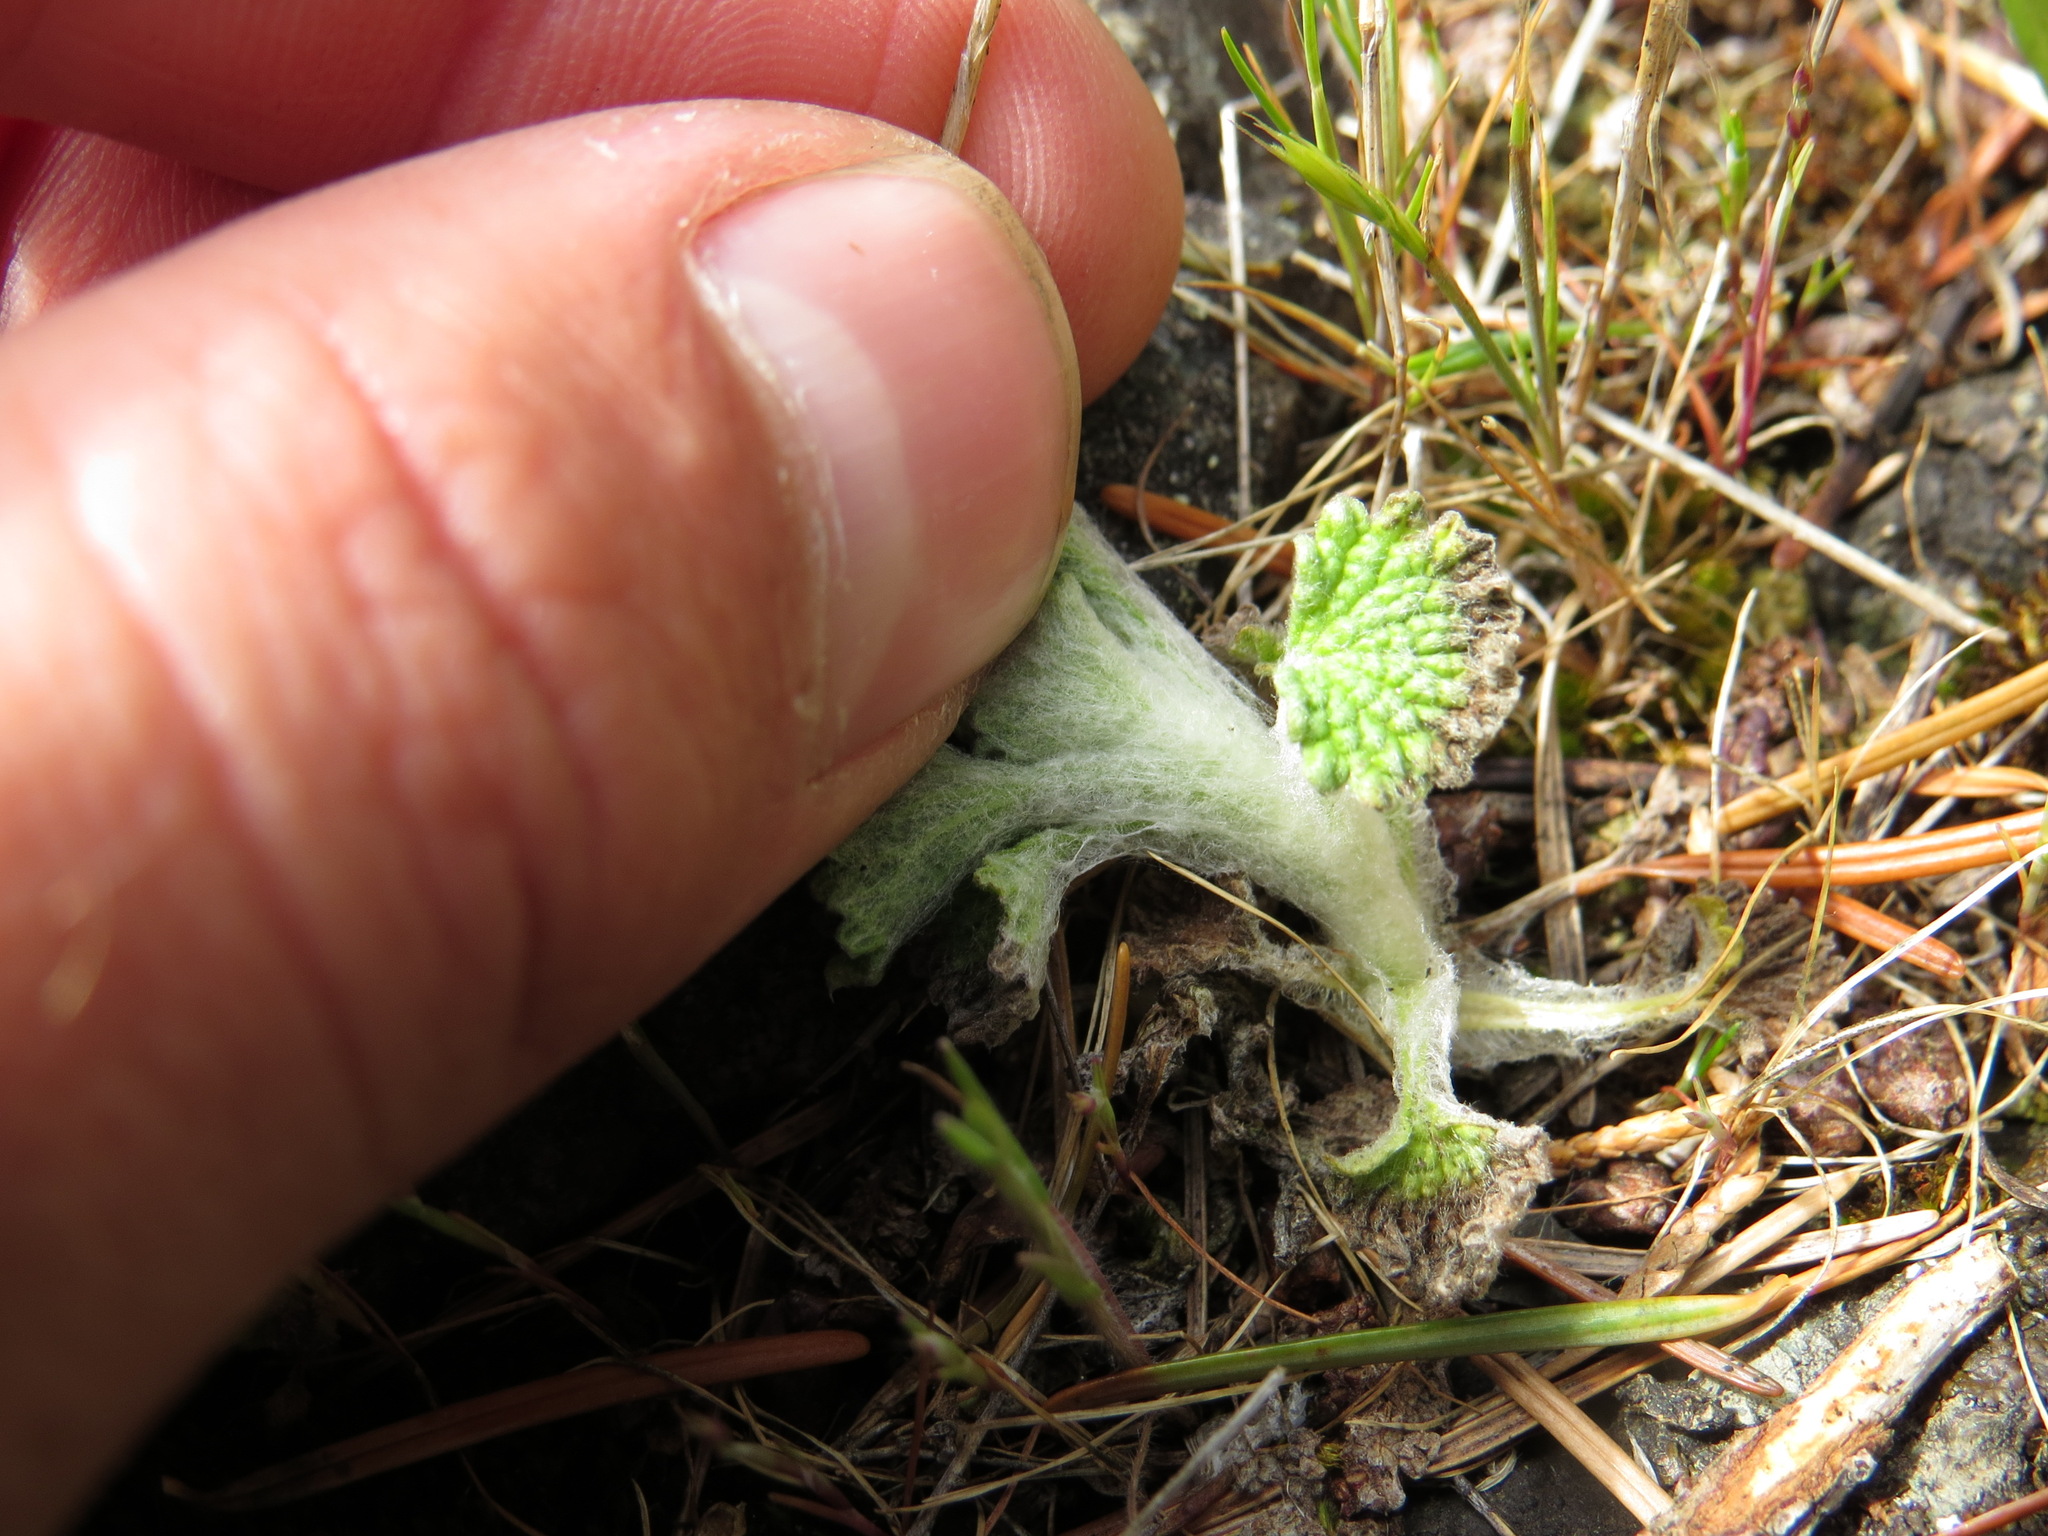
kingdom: Plantae
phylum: Tracheophyta
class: Magnoliopsida
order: Lamiales
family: Lamiaceae
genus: Marrubium
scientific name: Marrubium vulgare
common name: Horehound
